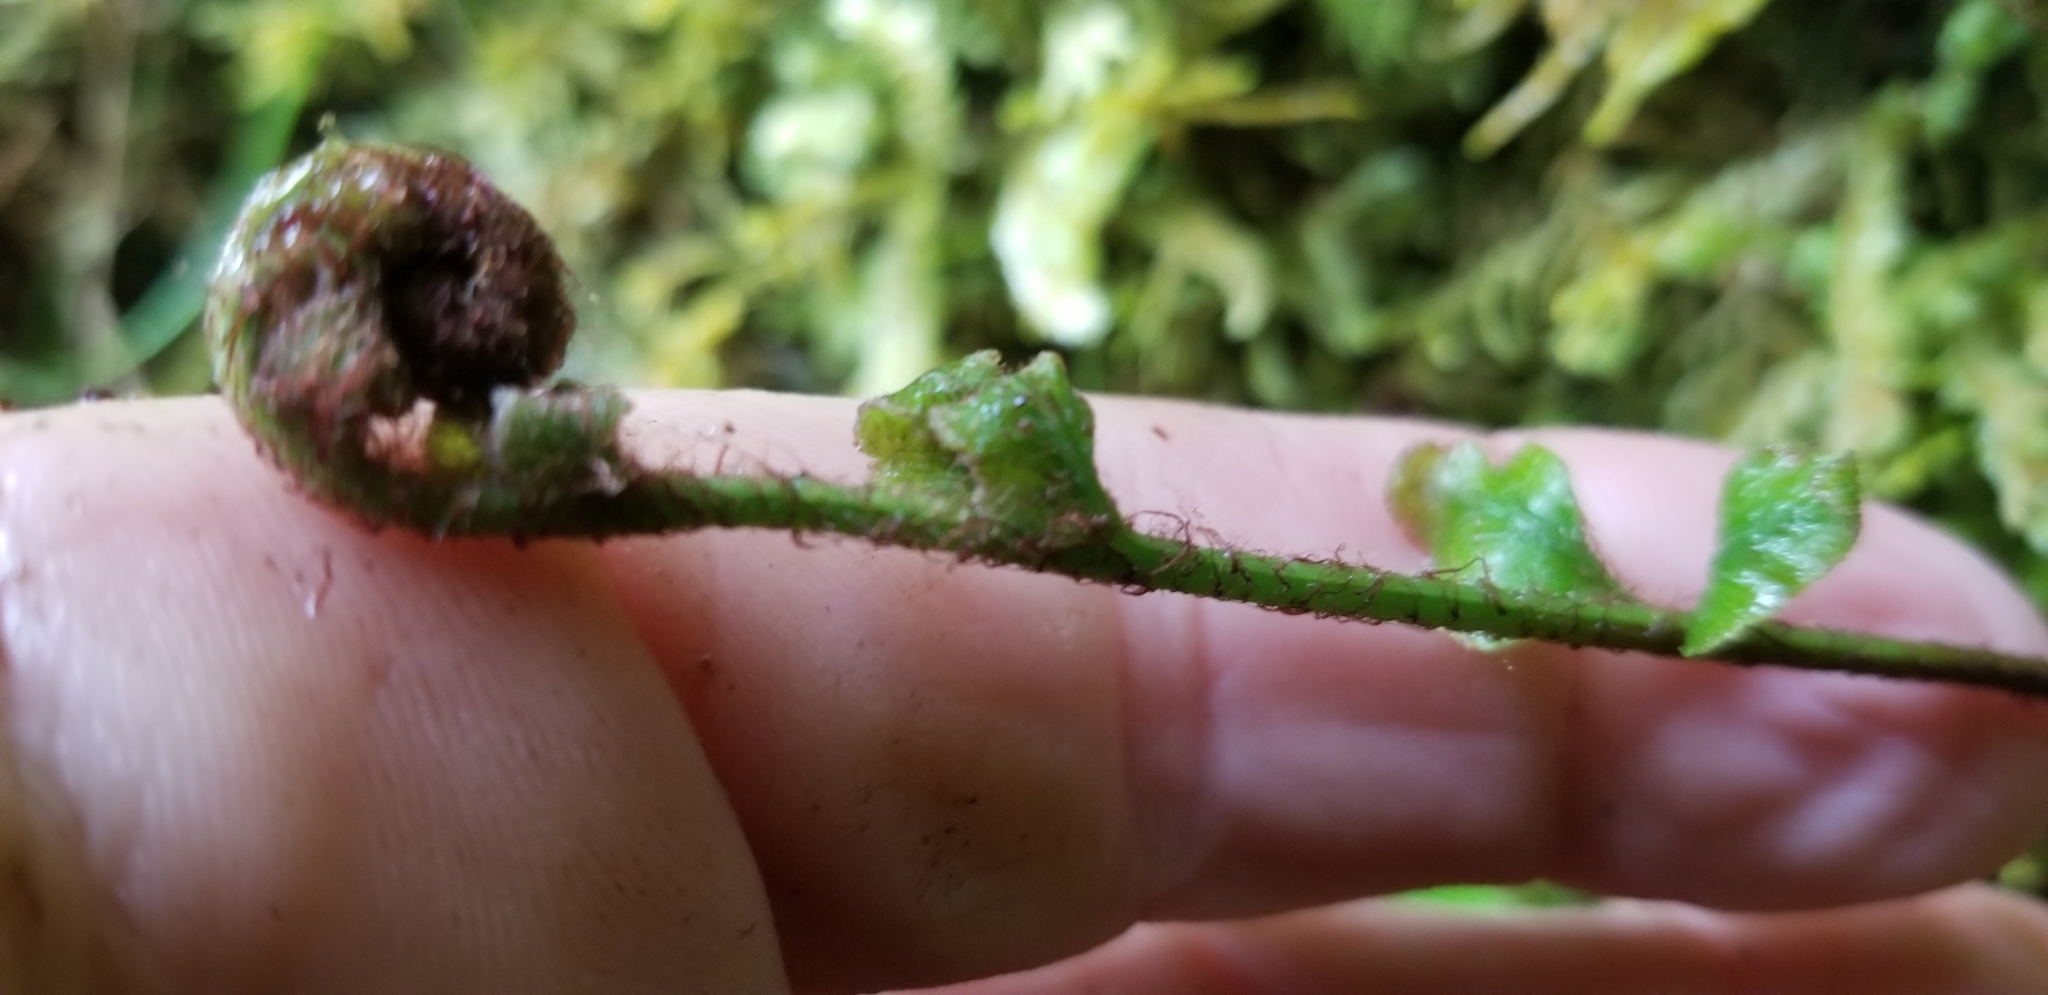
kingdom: Plantae
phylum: Tracheophyta
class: Polypodiopsida
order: Polypodiales
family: Aspleniaceae
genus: Asplenium
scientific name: Asplenium polyodon
